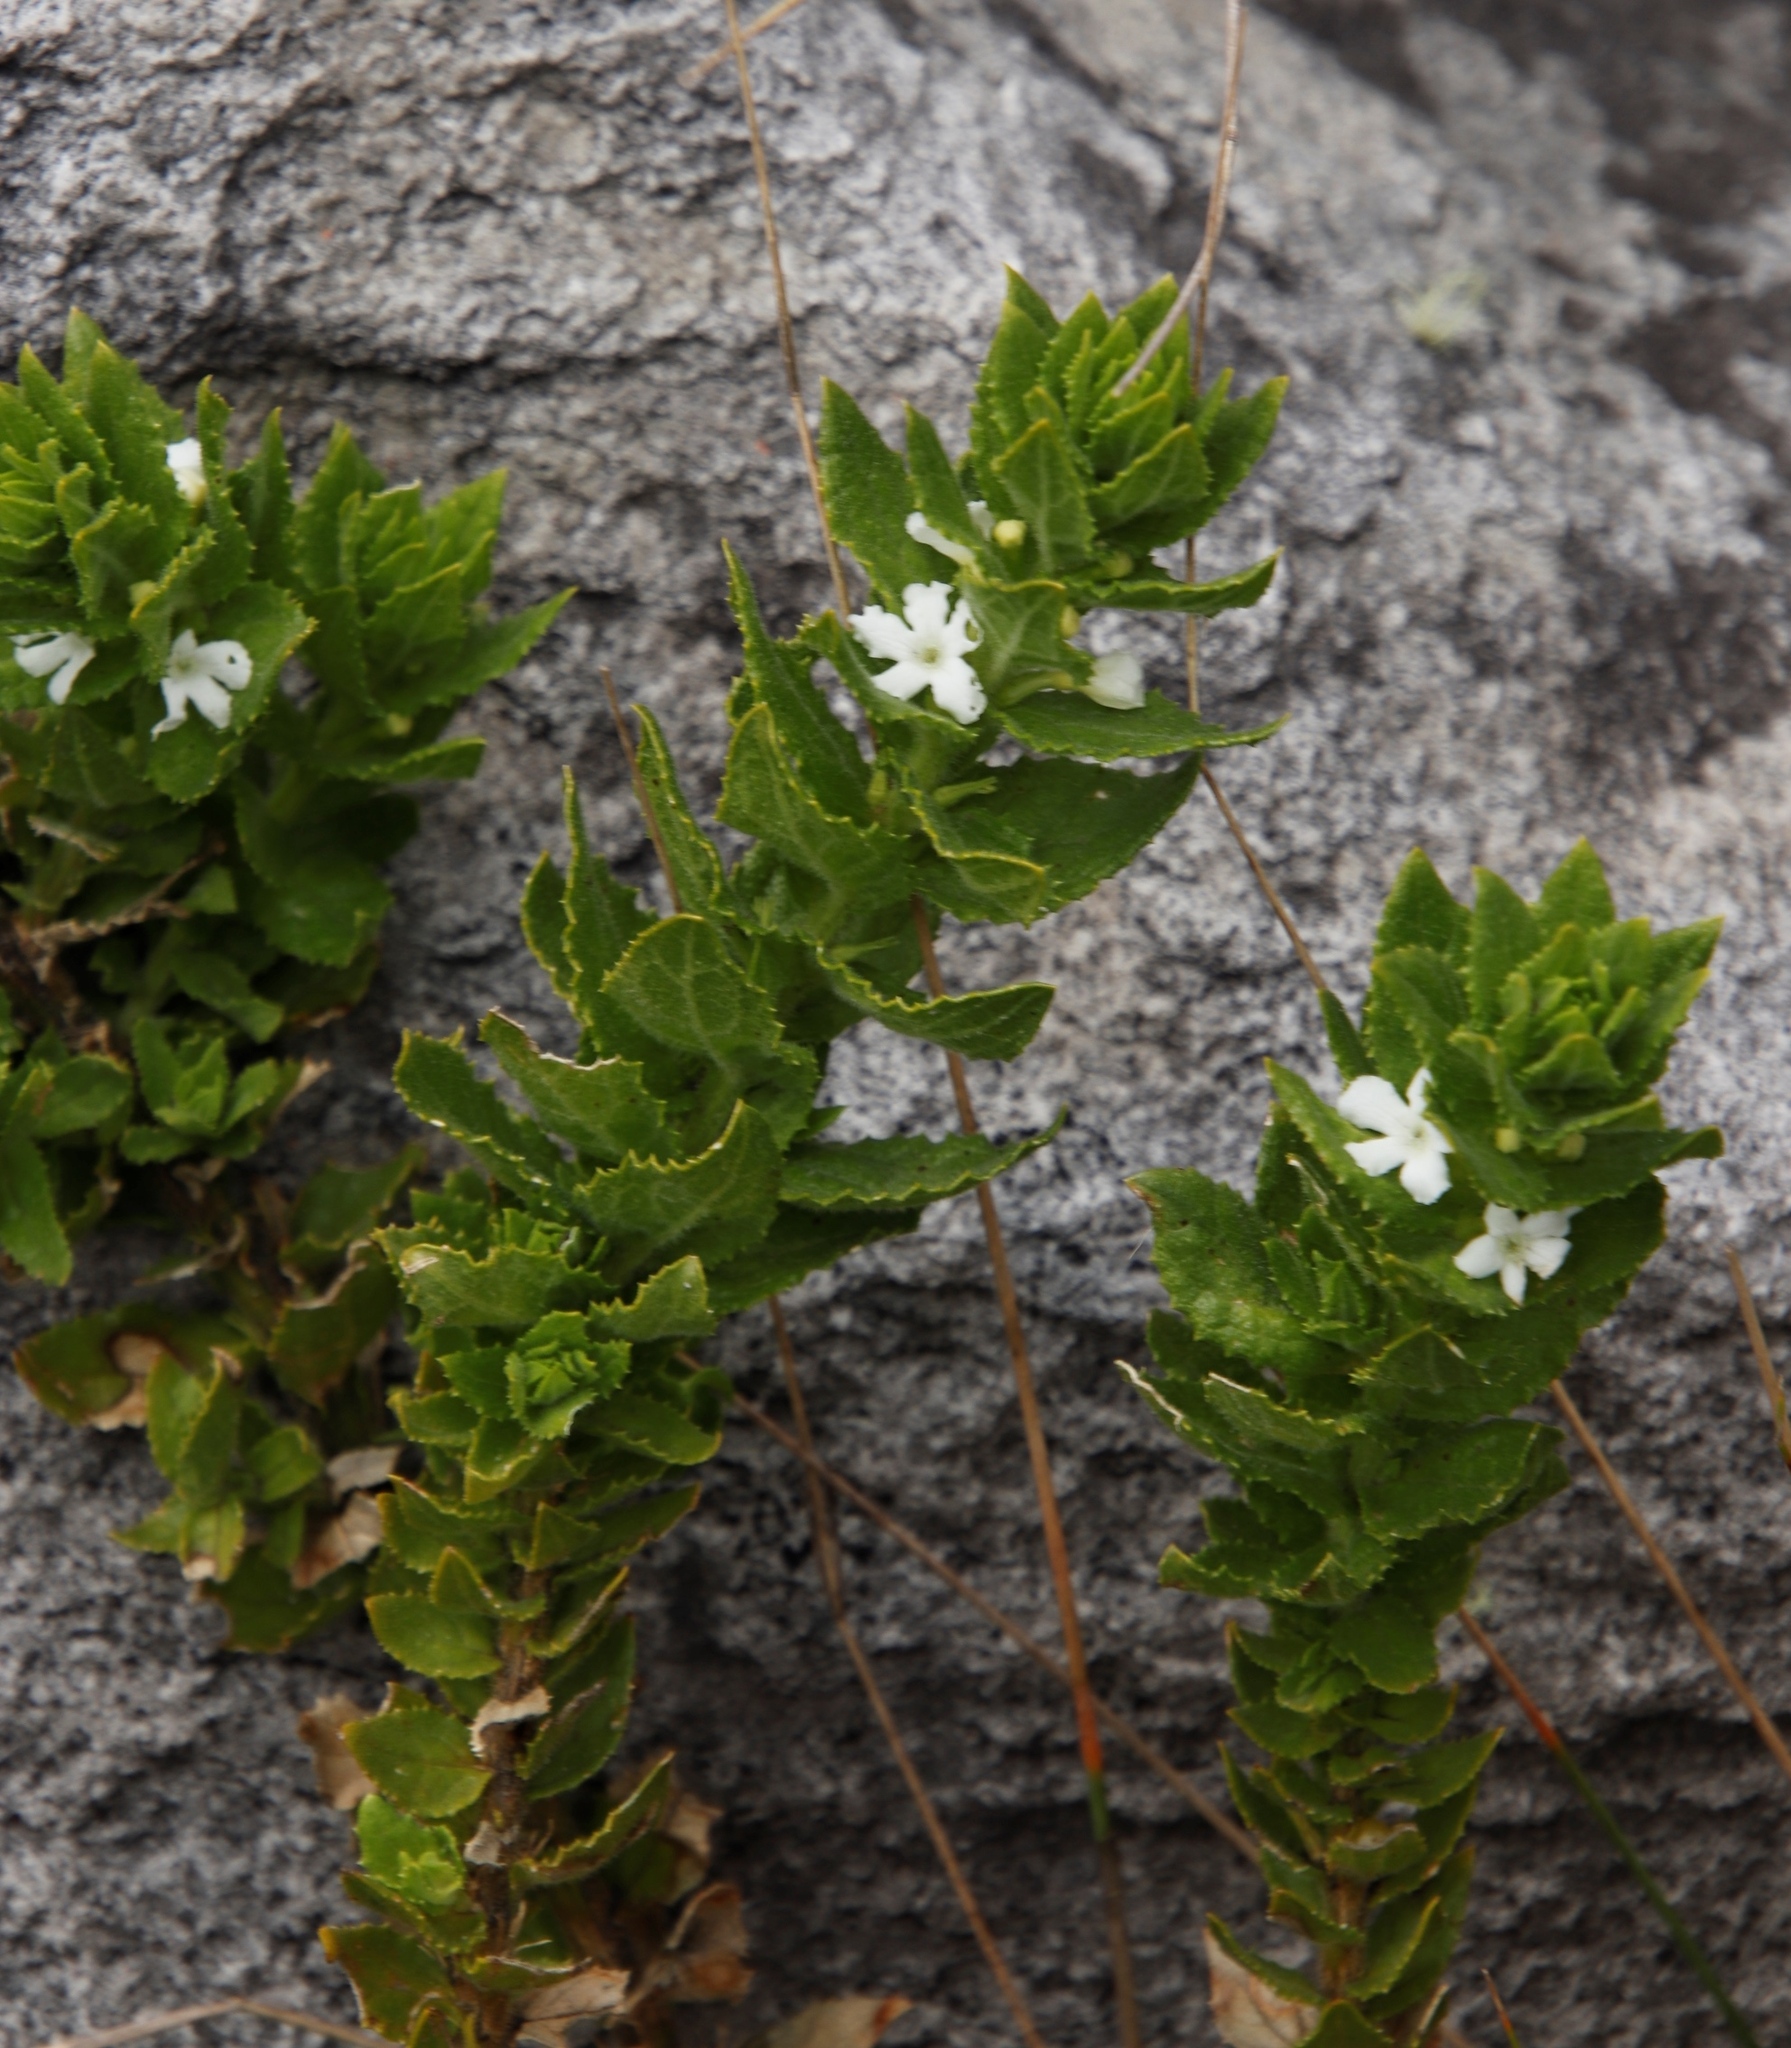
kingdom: Plantae
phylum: Tracheophyta
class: Magnoliopsida
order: Lamiales
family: Scrophulariaceae
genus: Oftia
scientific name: Oftia africana
